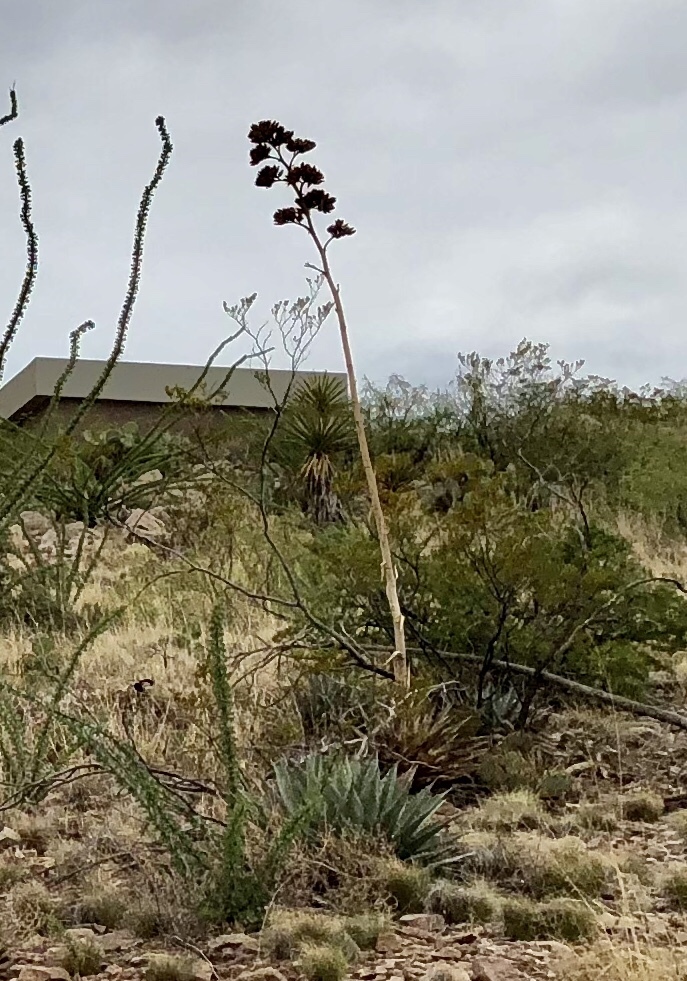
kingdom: Plantae
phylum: Tracheophyta
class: Liliopsida
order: Asparagales
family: Asparagaceae
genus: Agave
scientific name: Agave parryi
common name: Parry's agave
